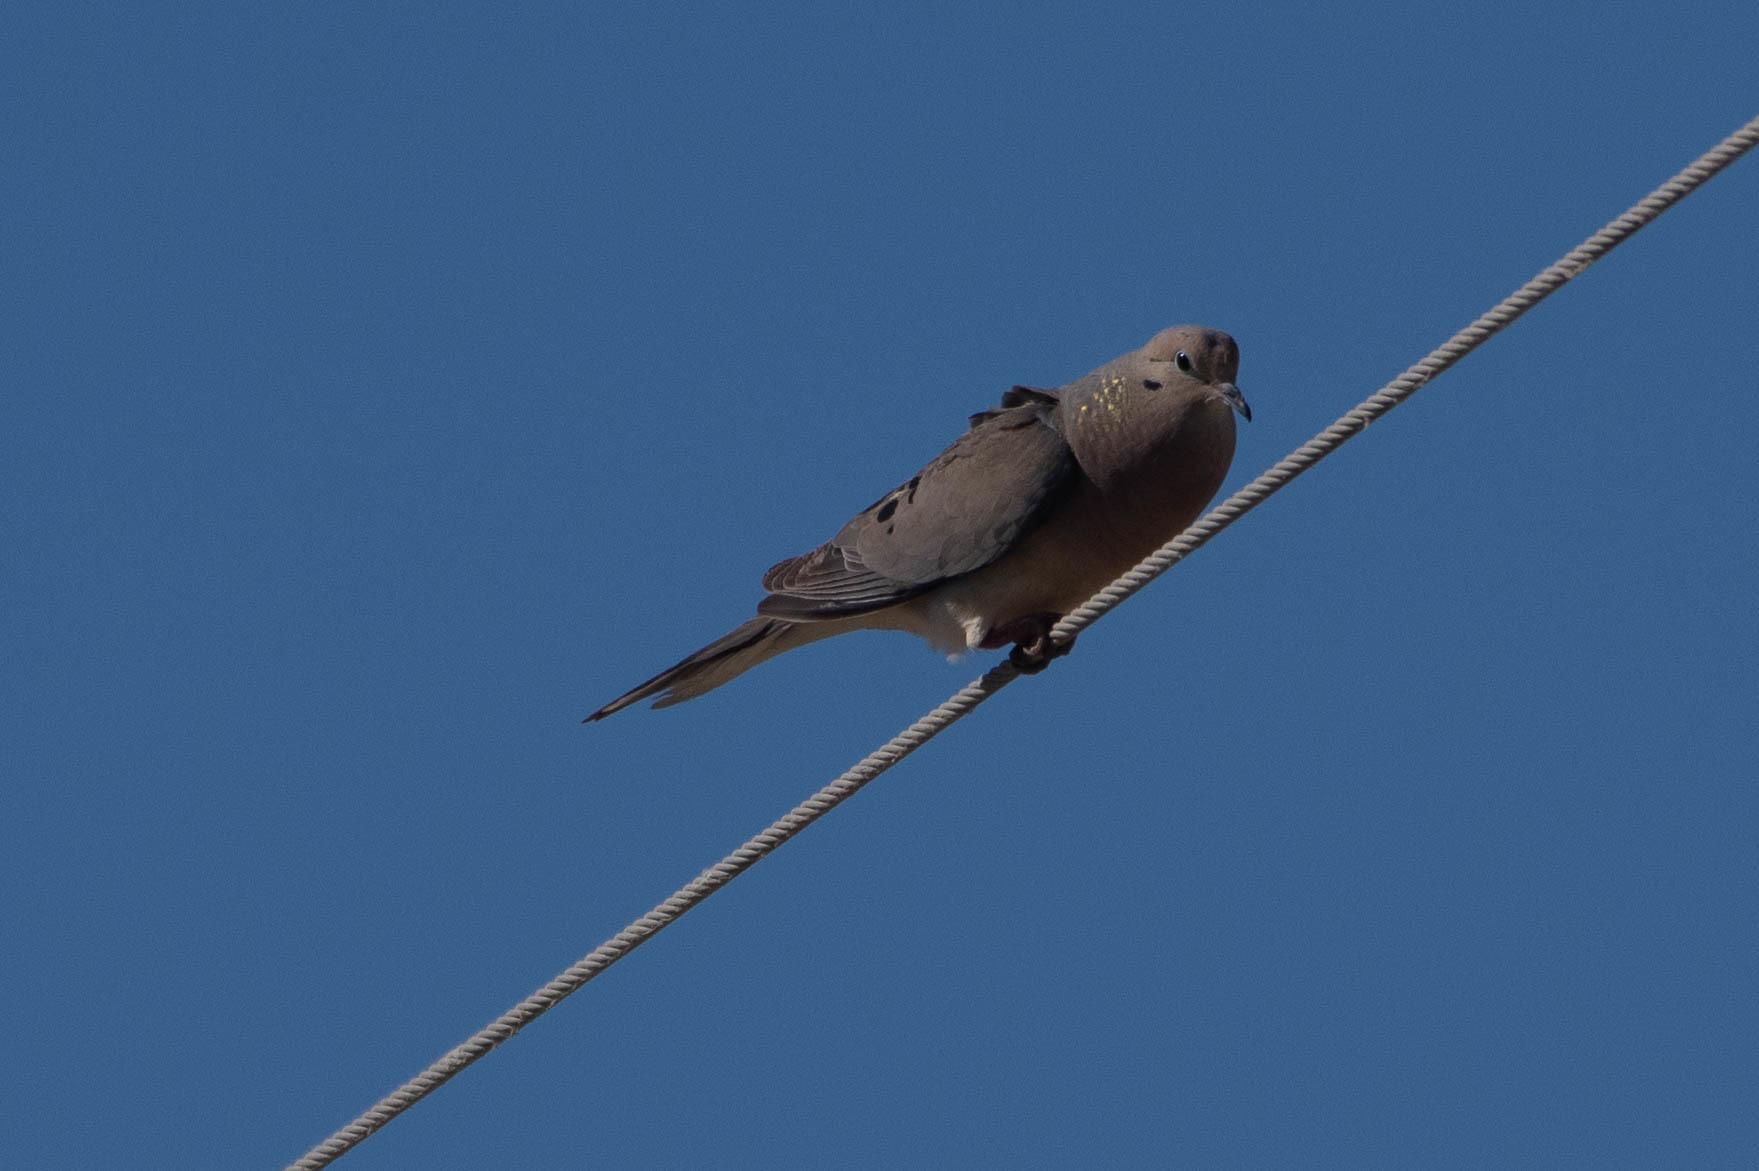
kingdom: Animalia
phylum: Chordata
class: Aves
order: Columbiformes
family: Columbidae
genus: Zenaida
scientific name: Zenaida macroura
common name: Mourning dove
